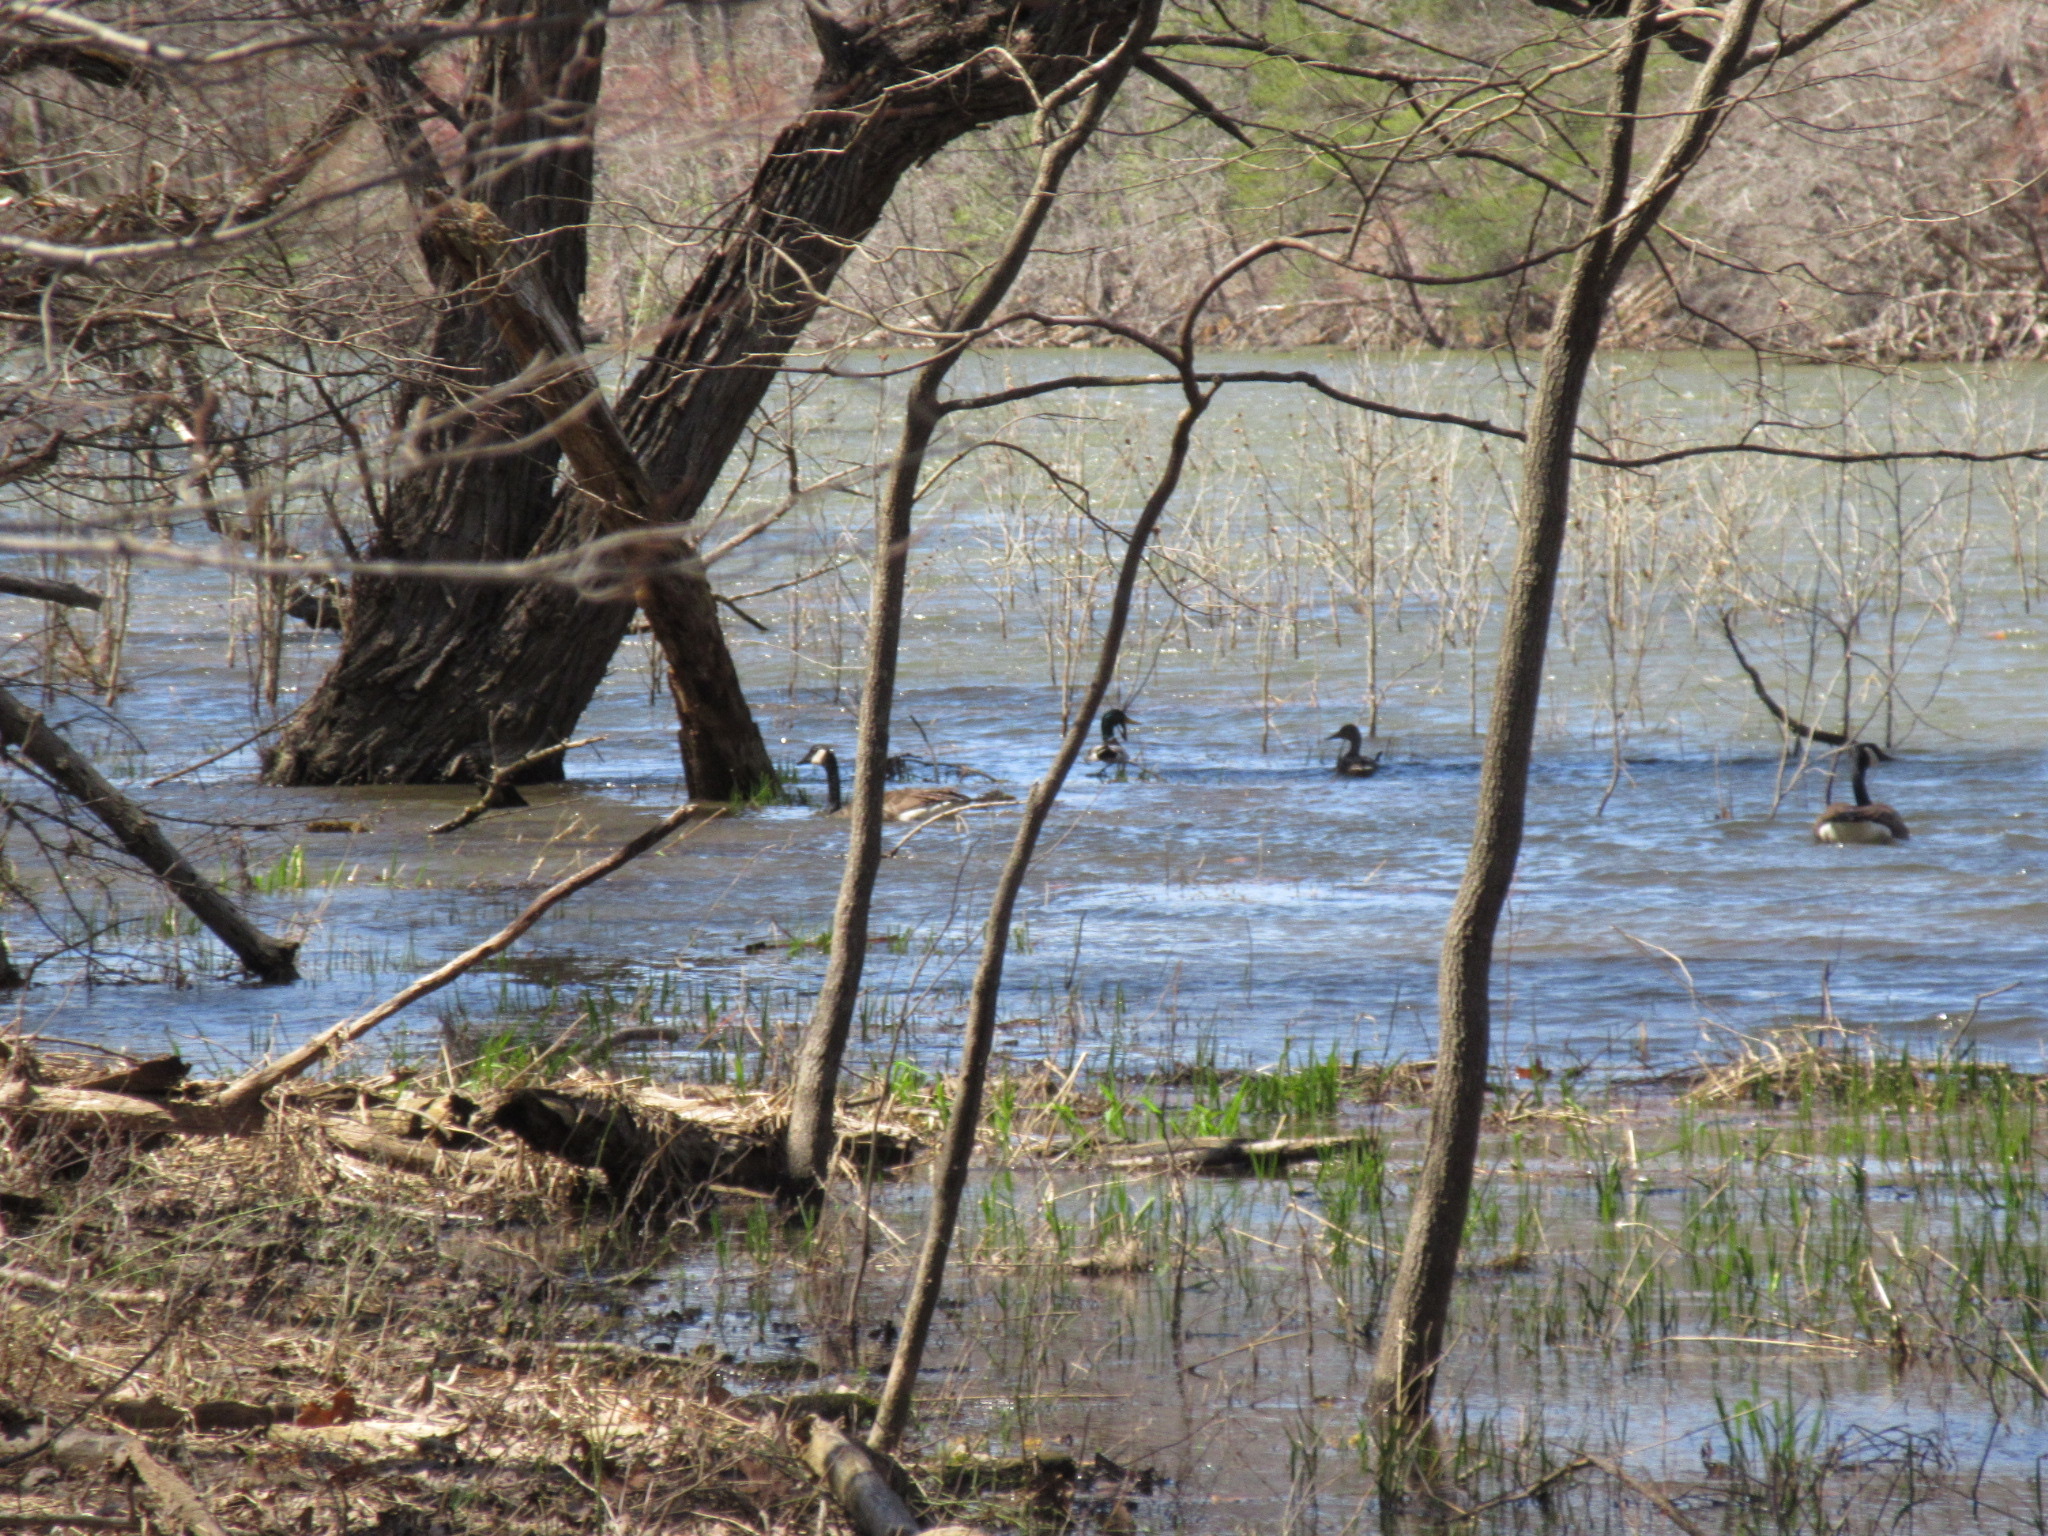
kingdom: Animalia
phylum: Chordata
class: Aves
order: Anseriformes
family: Anatidae
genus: Branta
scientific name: Branta canadensis
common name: Canada goose
